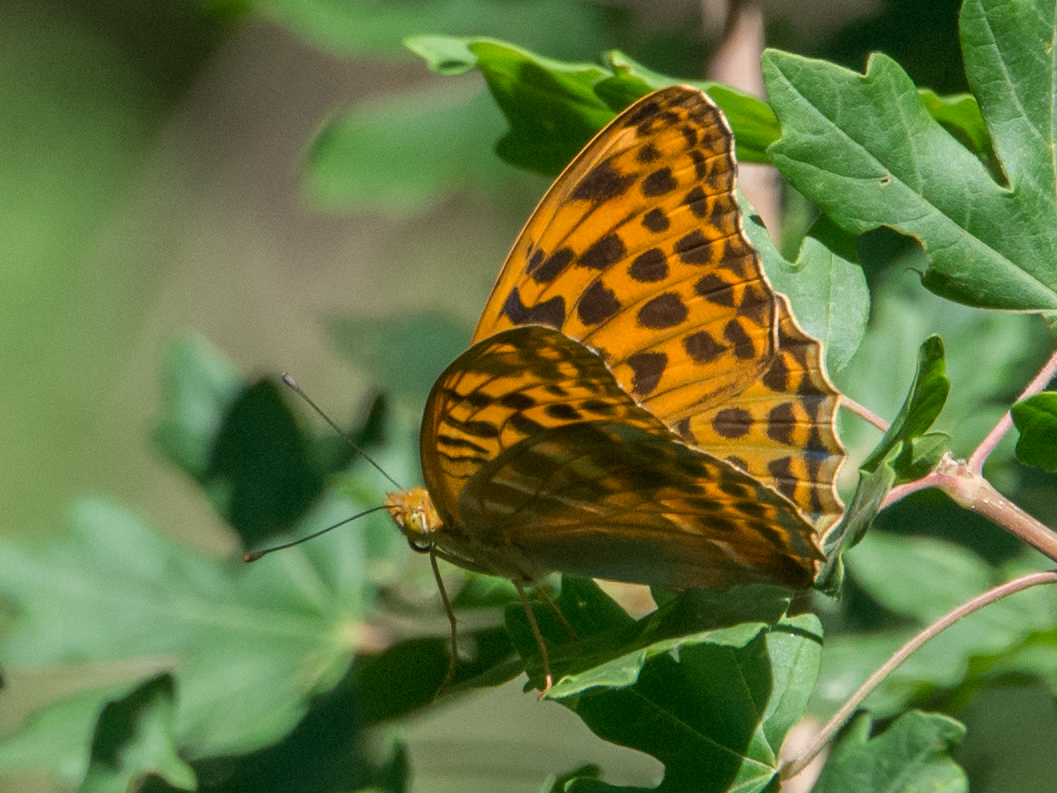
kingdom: Animalia
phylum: Arthropoda
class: Insecta
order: Lepidoptera
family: Nymphalidae
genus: Argynnis
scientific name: Argynnis paphia
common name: Silver-washed fritillary
